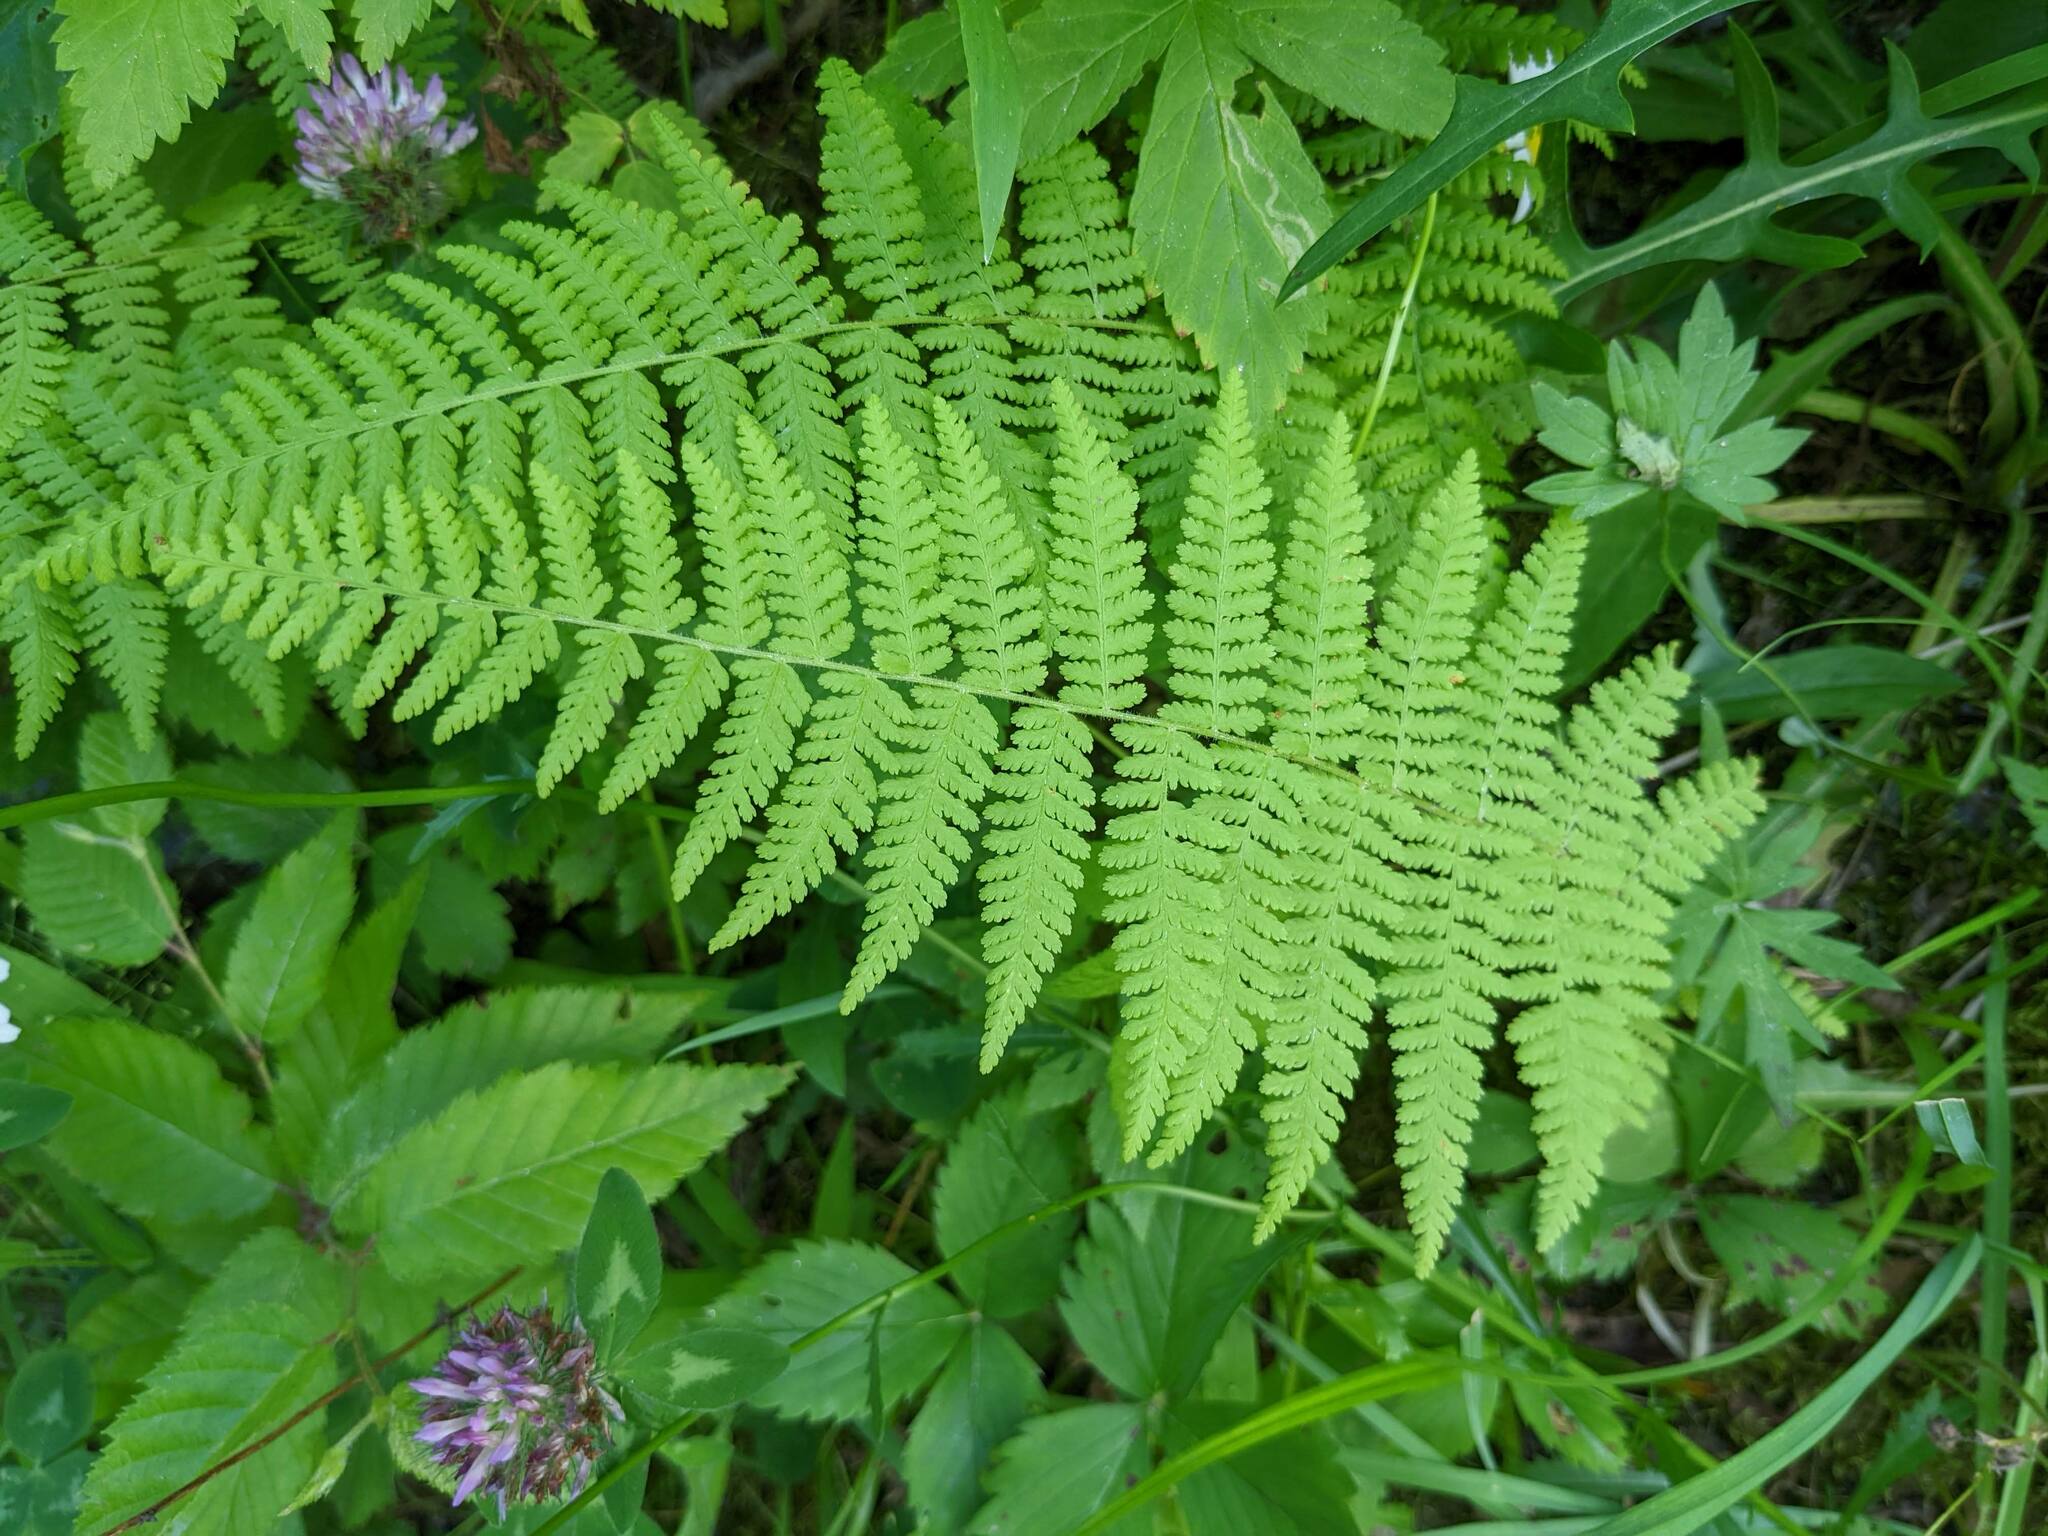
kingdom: Plantae
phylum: Tracheophyta
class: Polypodiopsida
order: Polypodiales
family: Dennstaedtiaceae
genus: Sitobolium
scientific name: Sitobolium punctilobum
